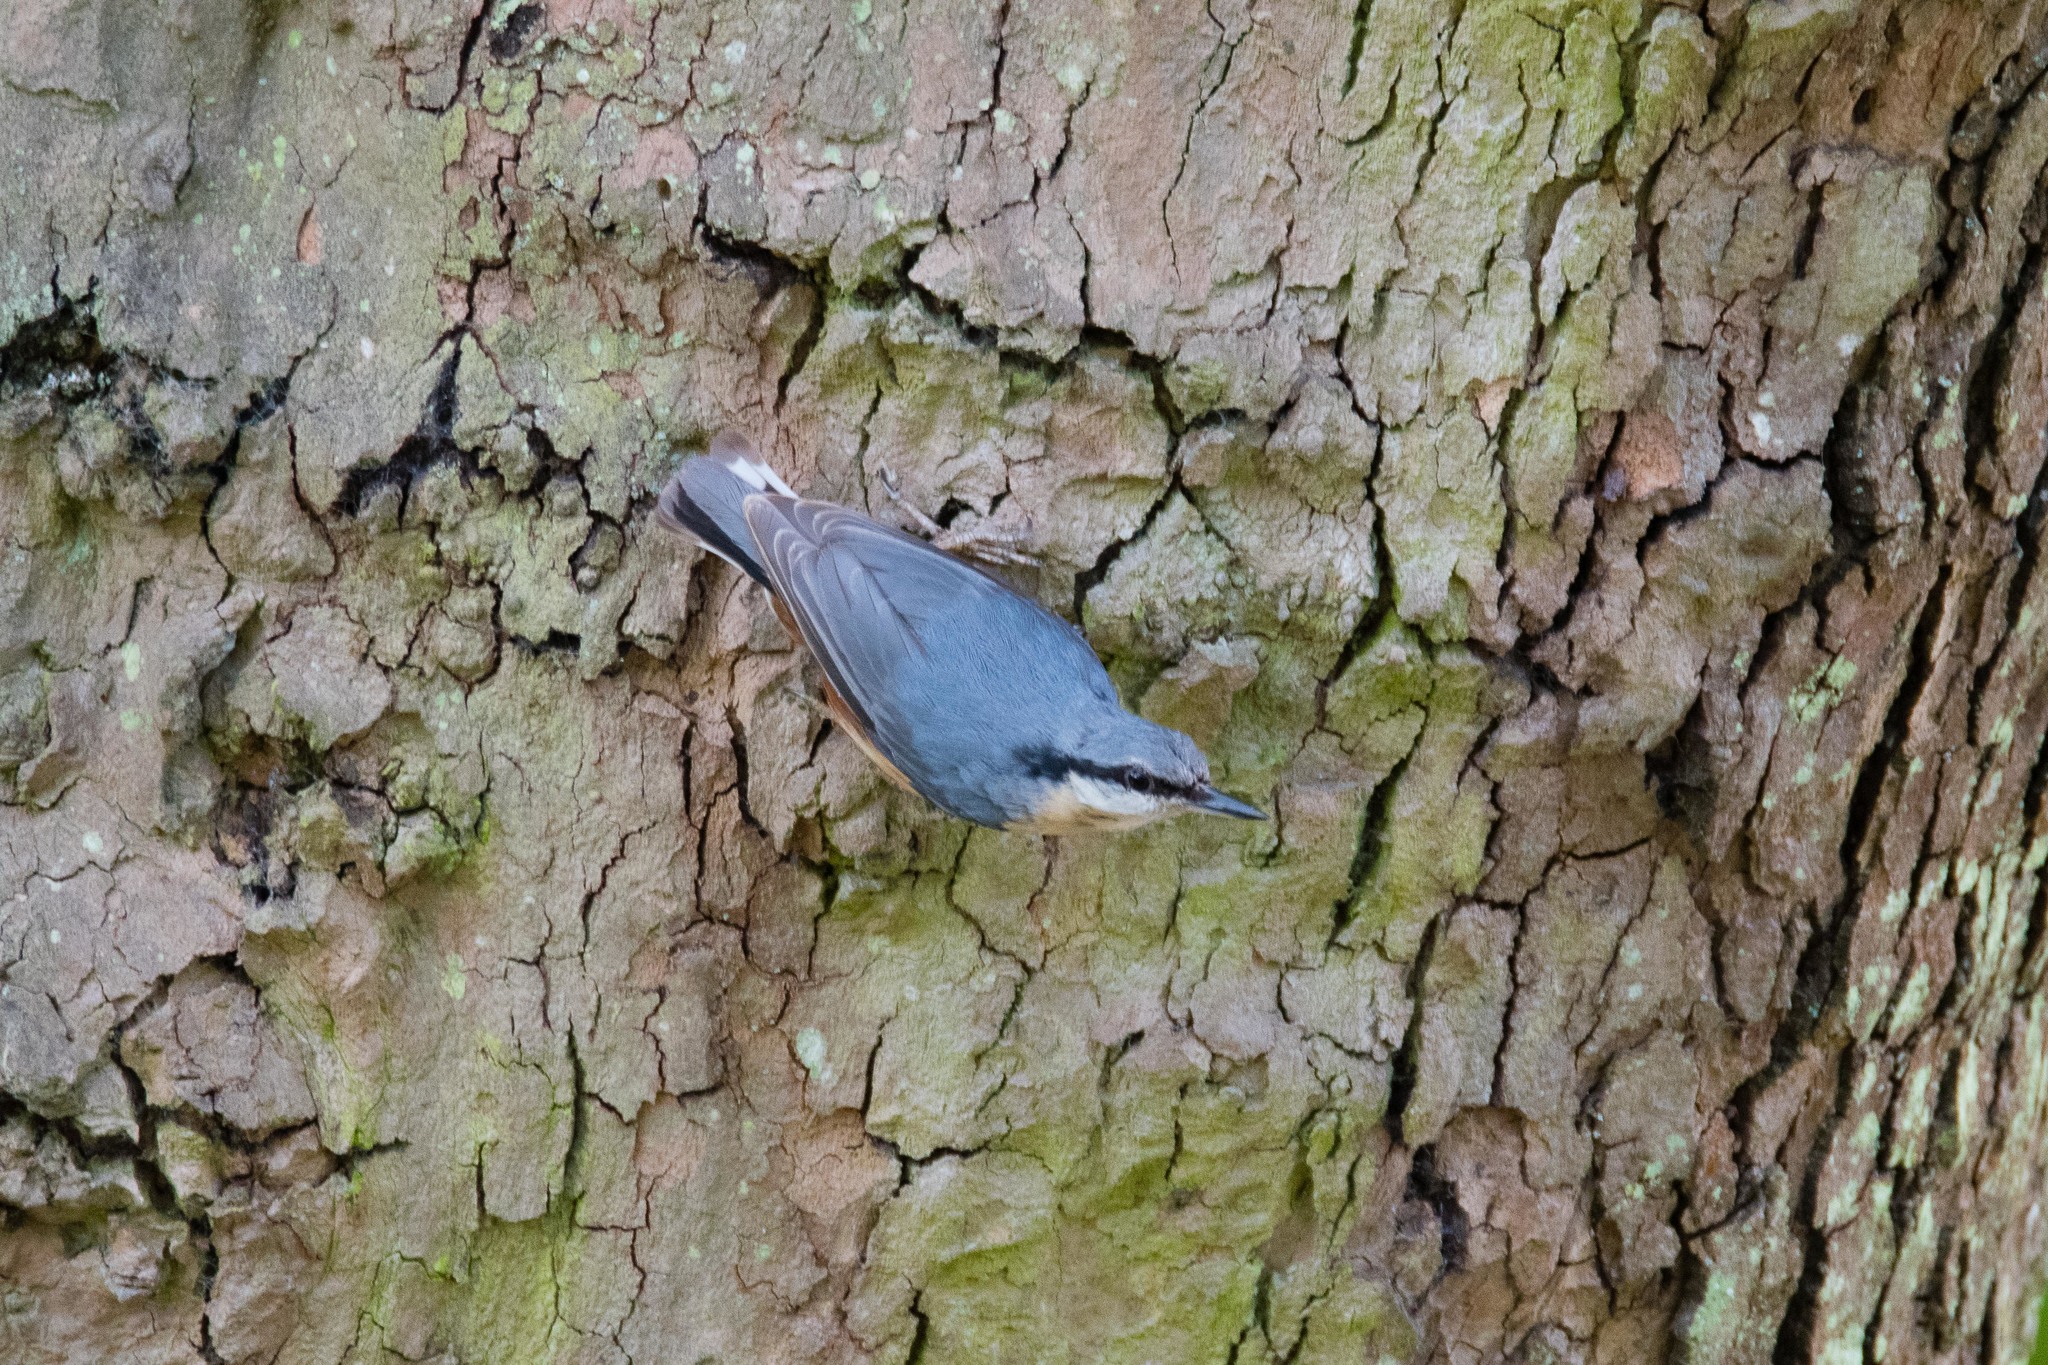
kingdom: Animalia
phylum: Chordata
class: Aves
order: Passeriformes
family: Sittidae
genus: Sitta
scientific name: Sitta europaea
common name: Eurasian nuthatch
